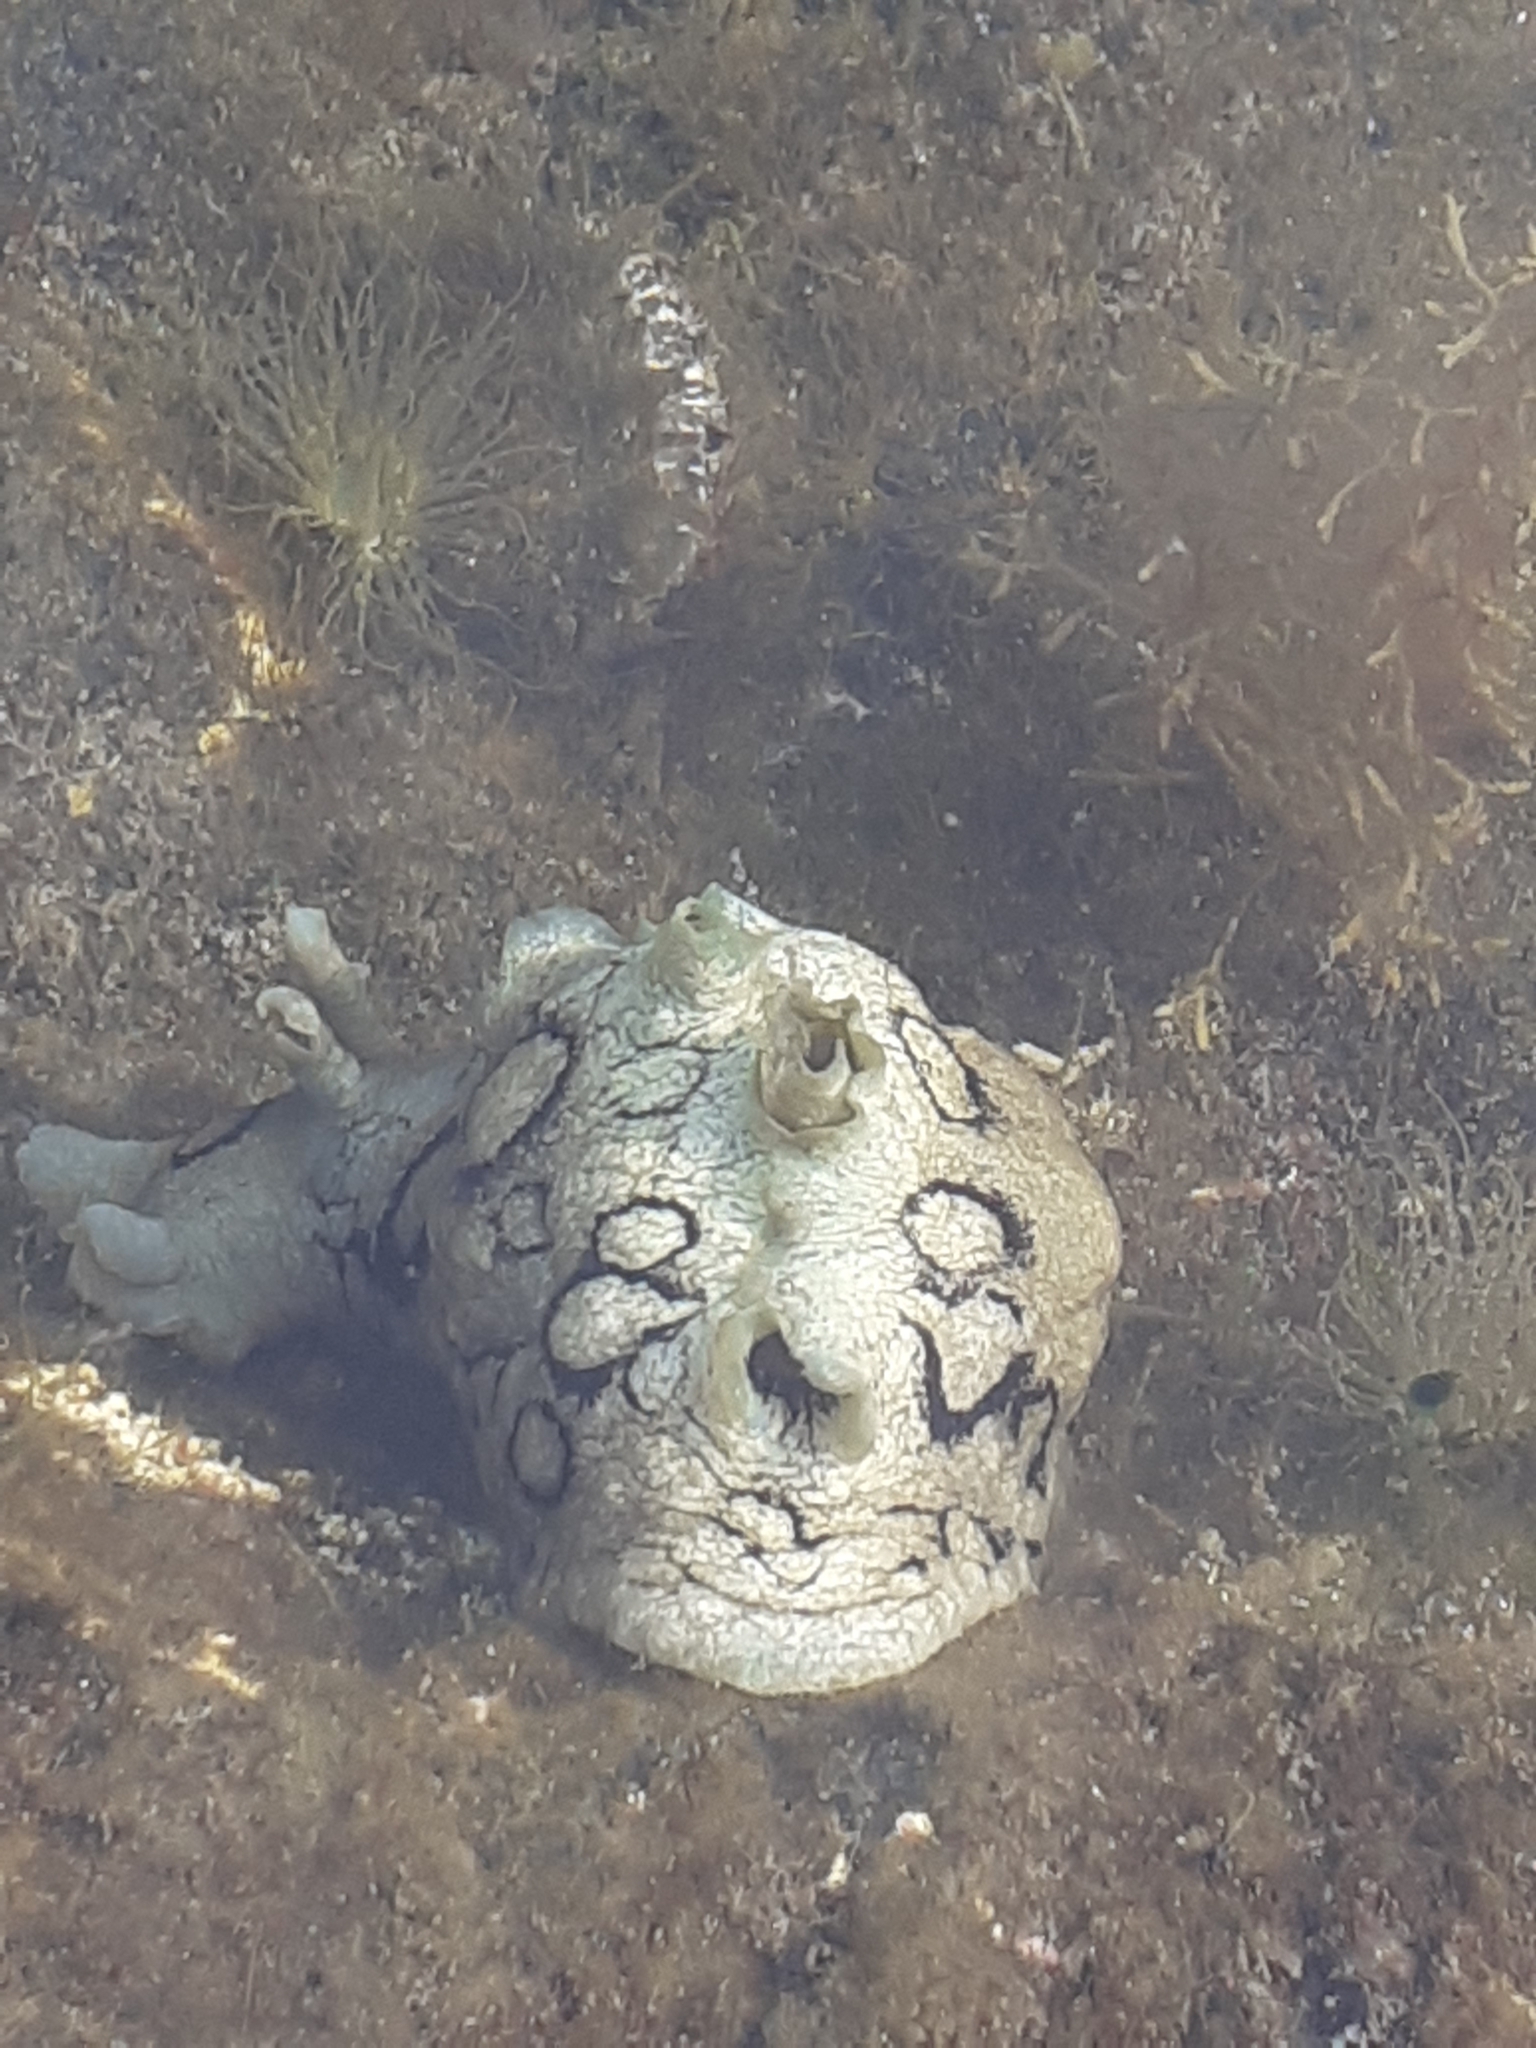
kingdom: Animalia
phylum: Mollusca
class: Gastropoda
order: Aplysiida
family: Aplysiidae
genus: Aplysia
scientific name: Aplysia dactylomela
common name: Large-spotted sea hare
